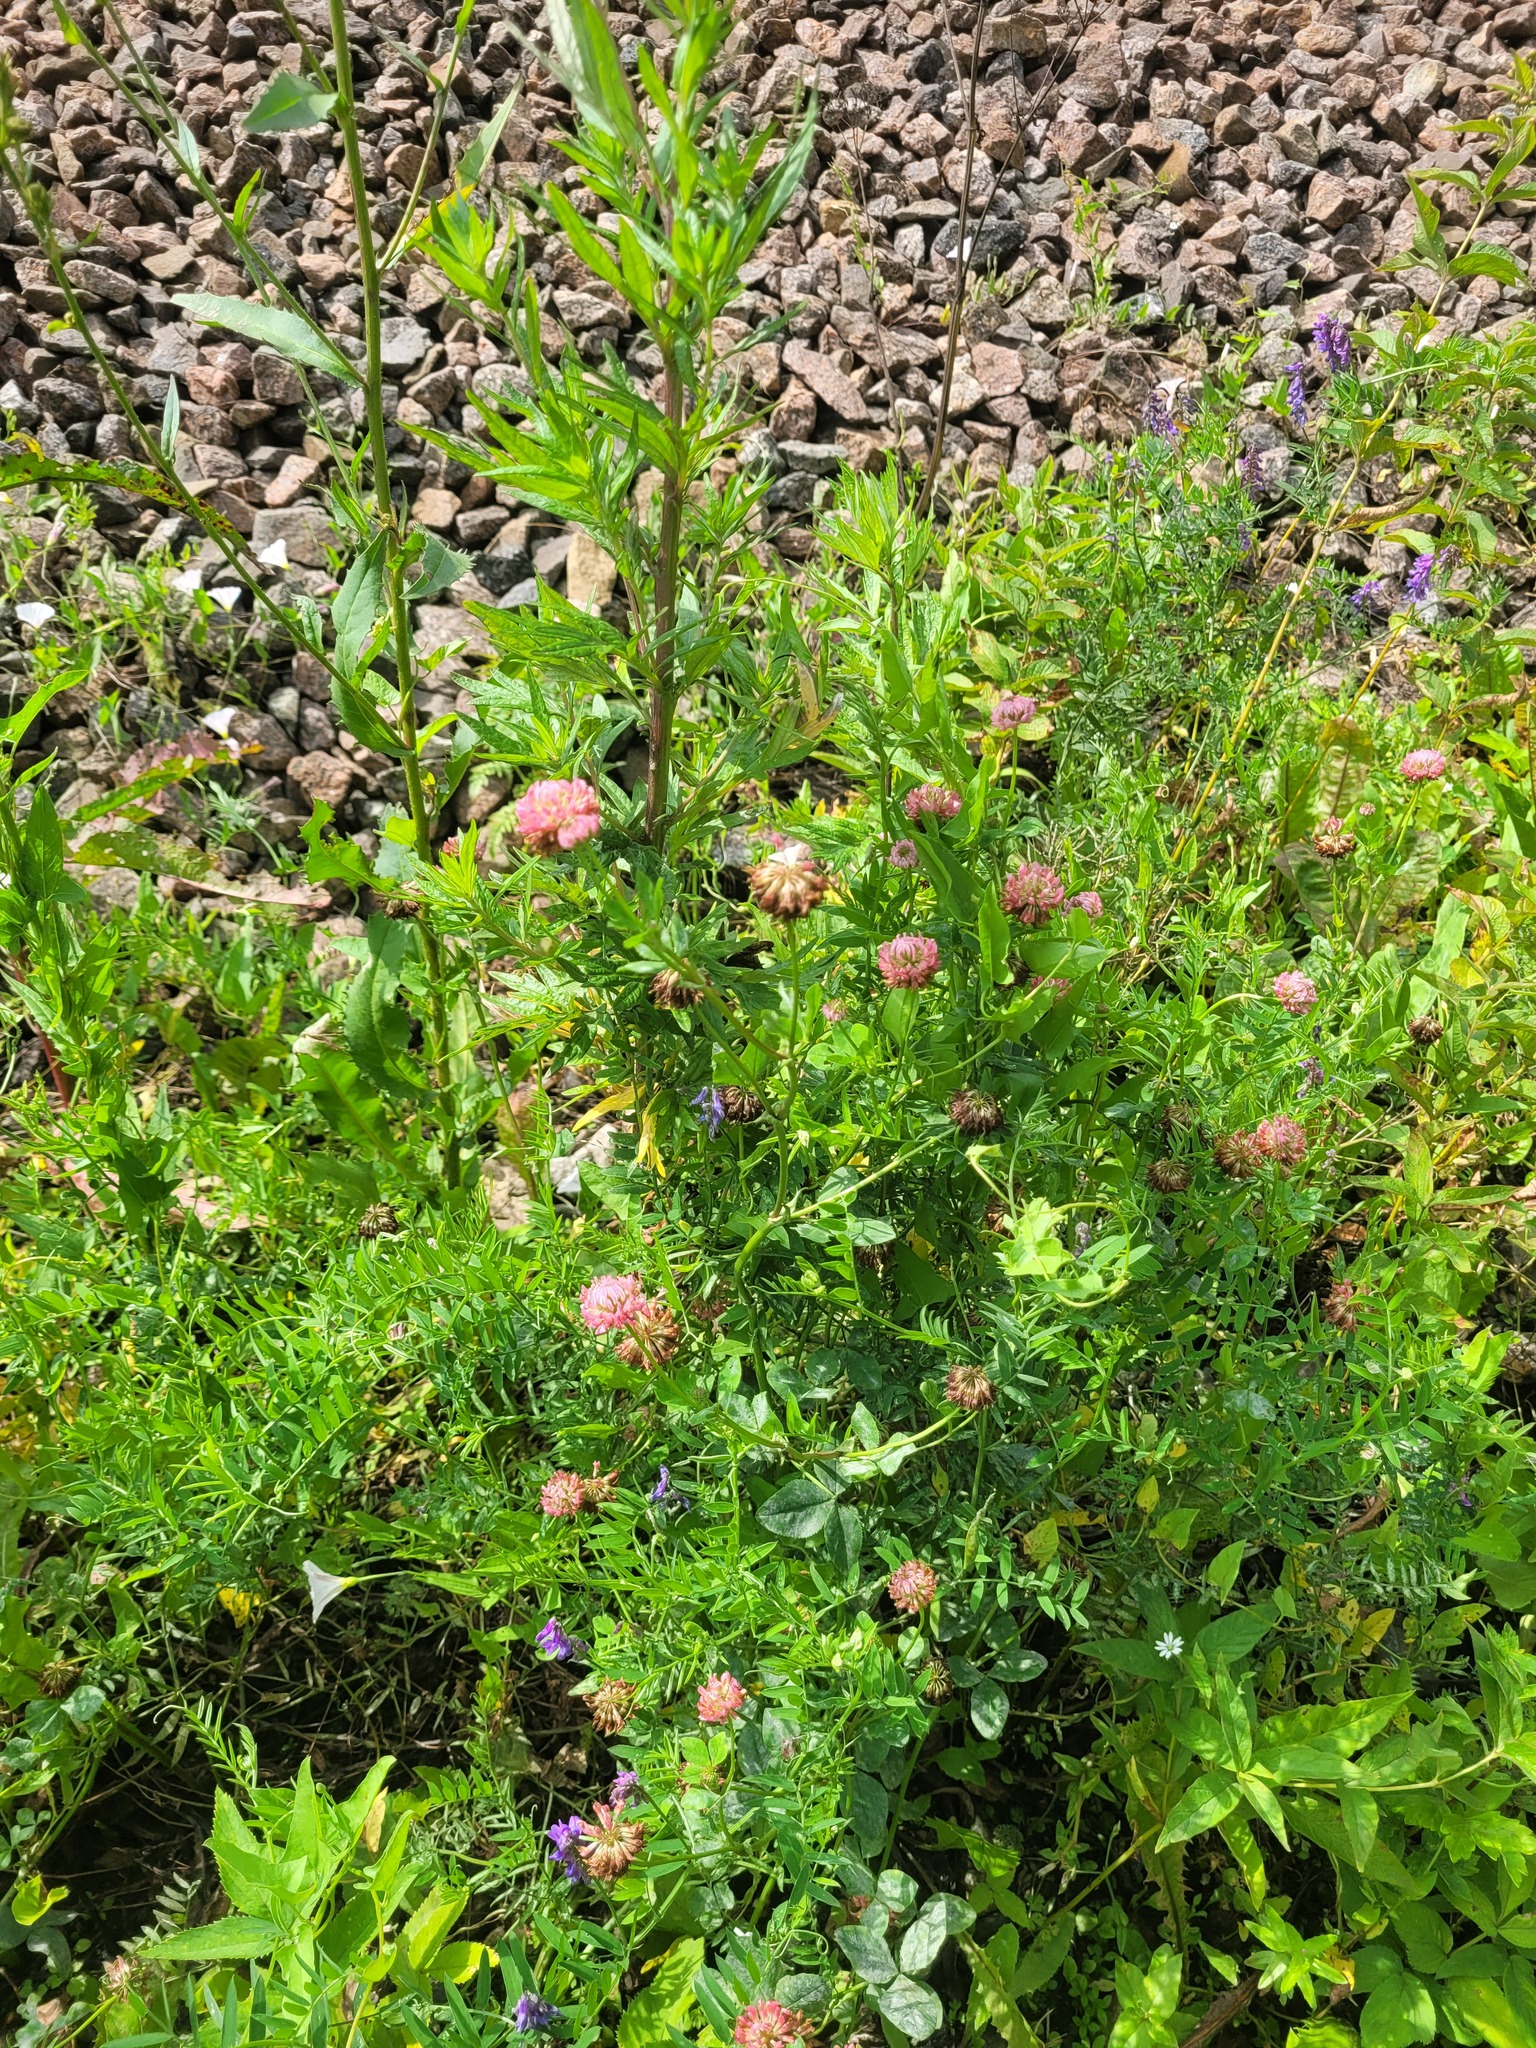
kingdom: Plantae
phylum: Tracheophyta
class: Magnoliopsida
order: Fabales
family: Fabaceae
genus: Trifolium
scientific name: Trifolium hybridum
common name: Alsike clover
